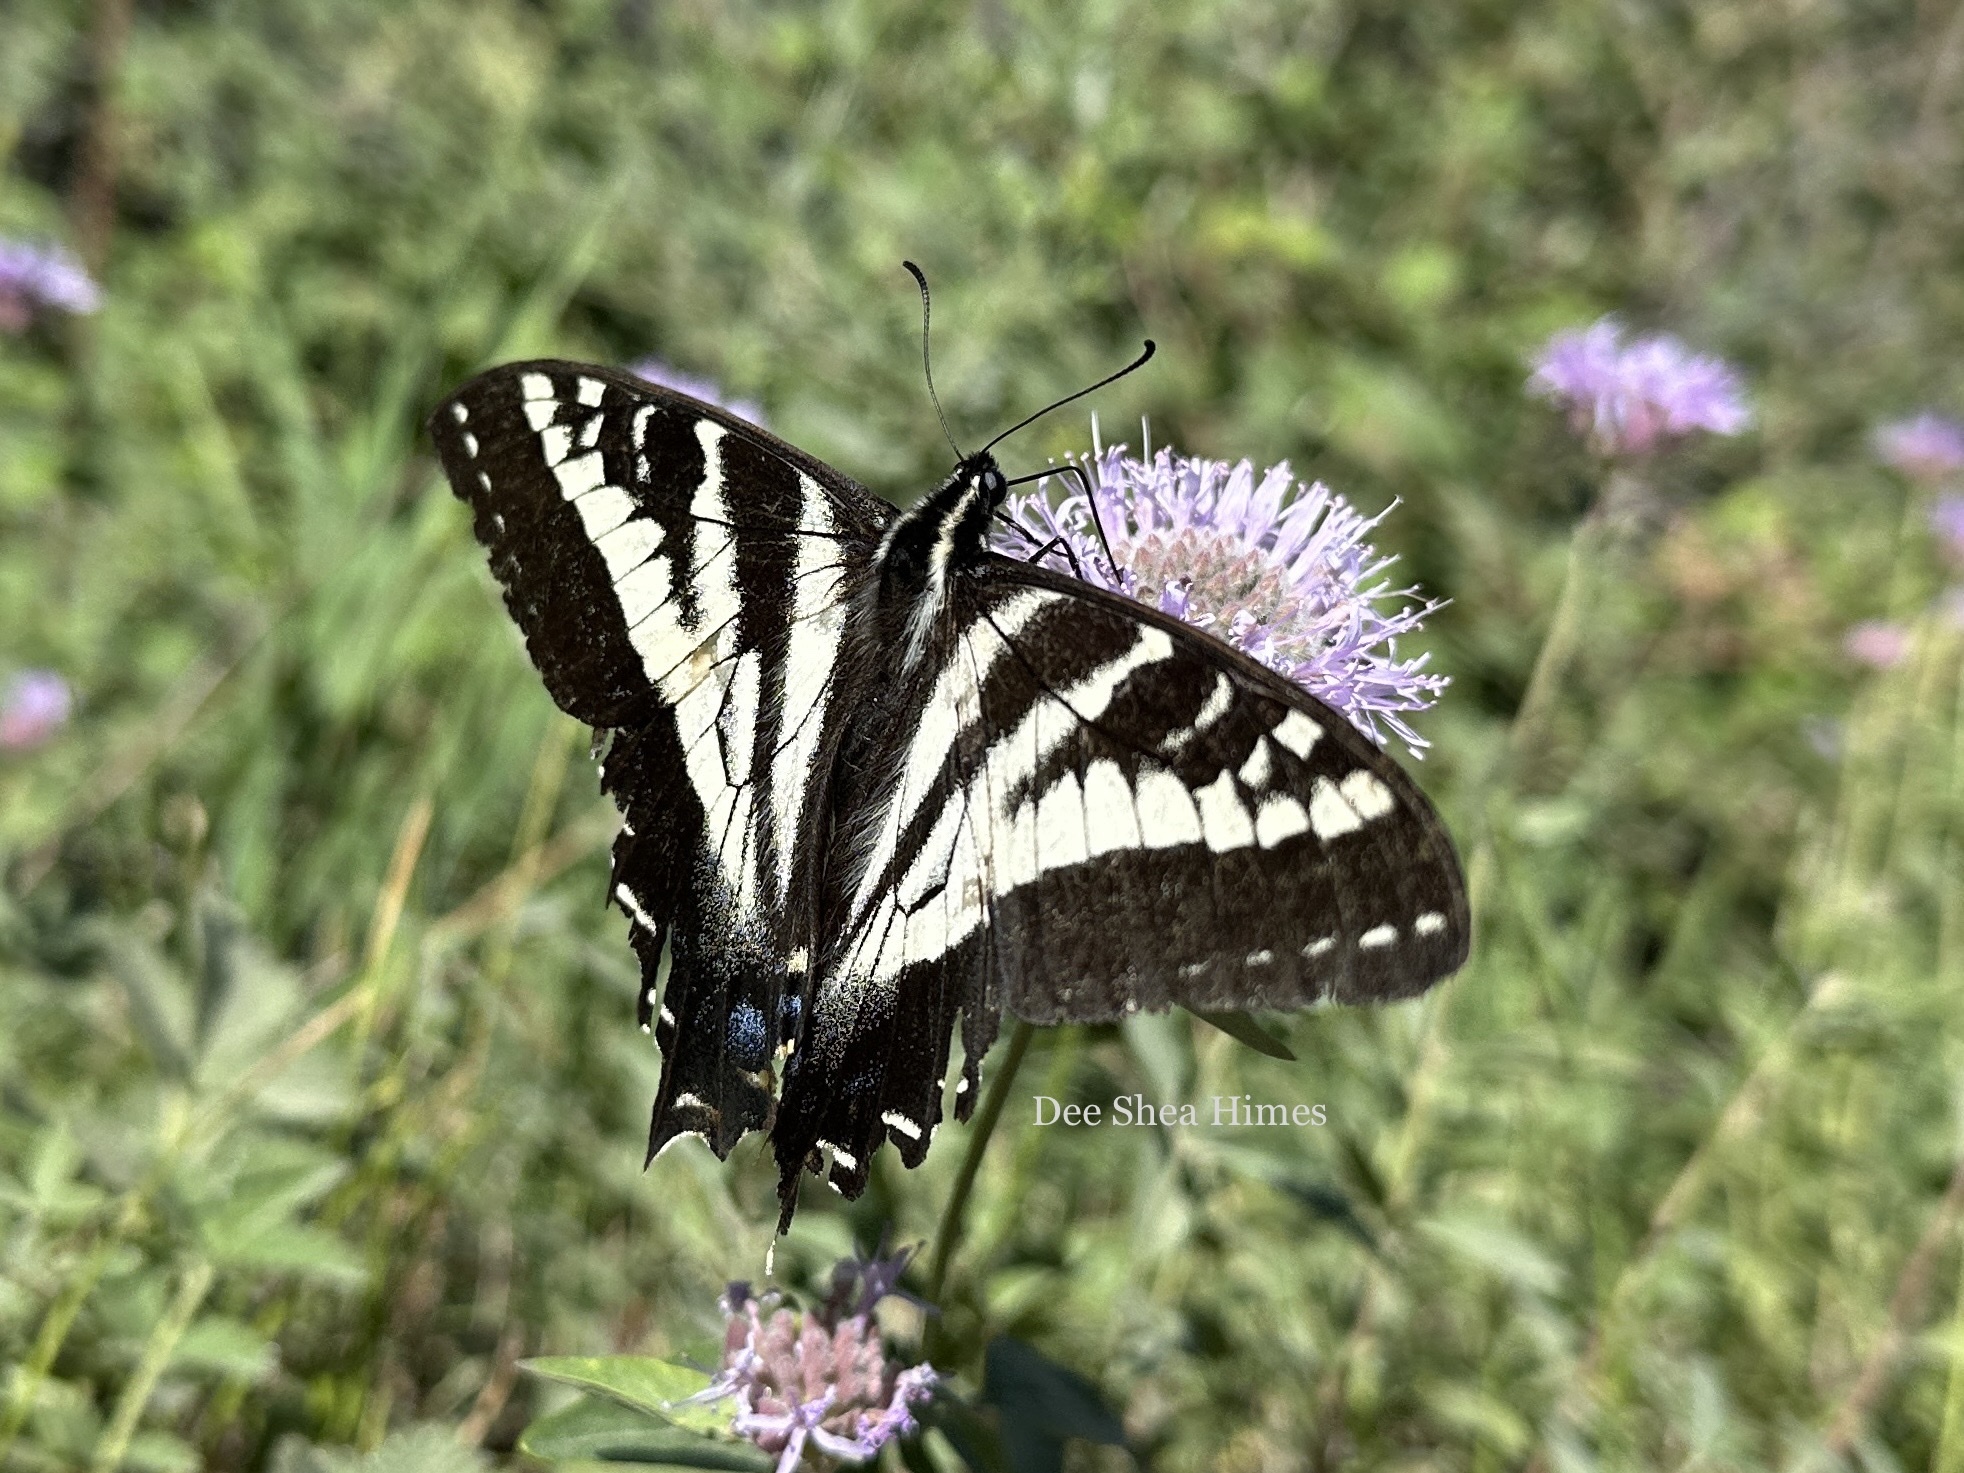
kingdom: Animalia
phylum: Arthropoda
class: Insecta
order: Lepidoptera
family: Papilionidae
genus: Papilio
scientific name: Papilio eurymedon
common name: Pale tiger swallowtail
